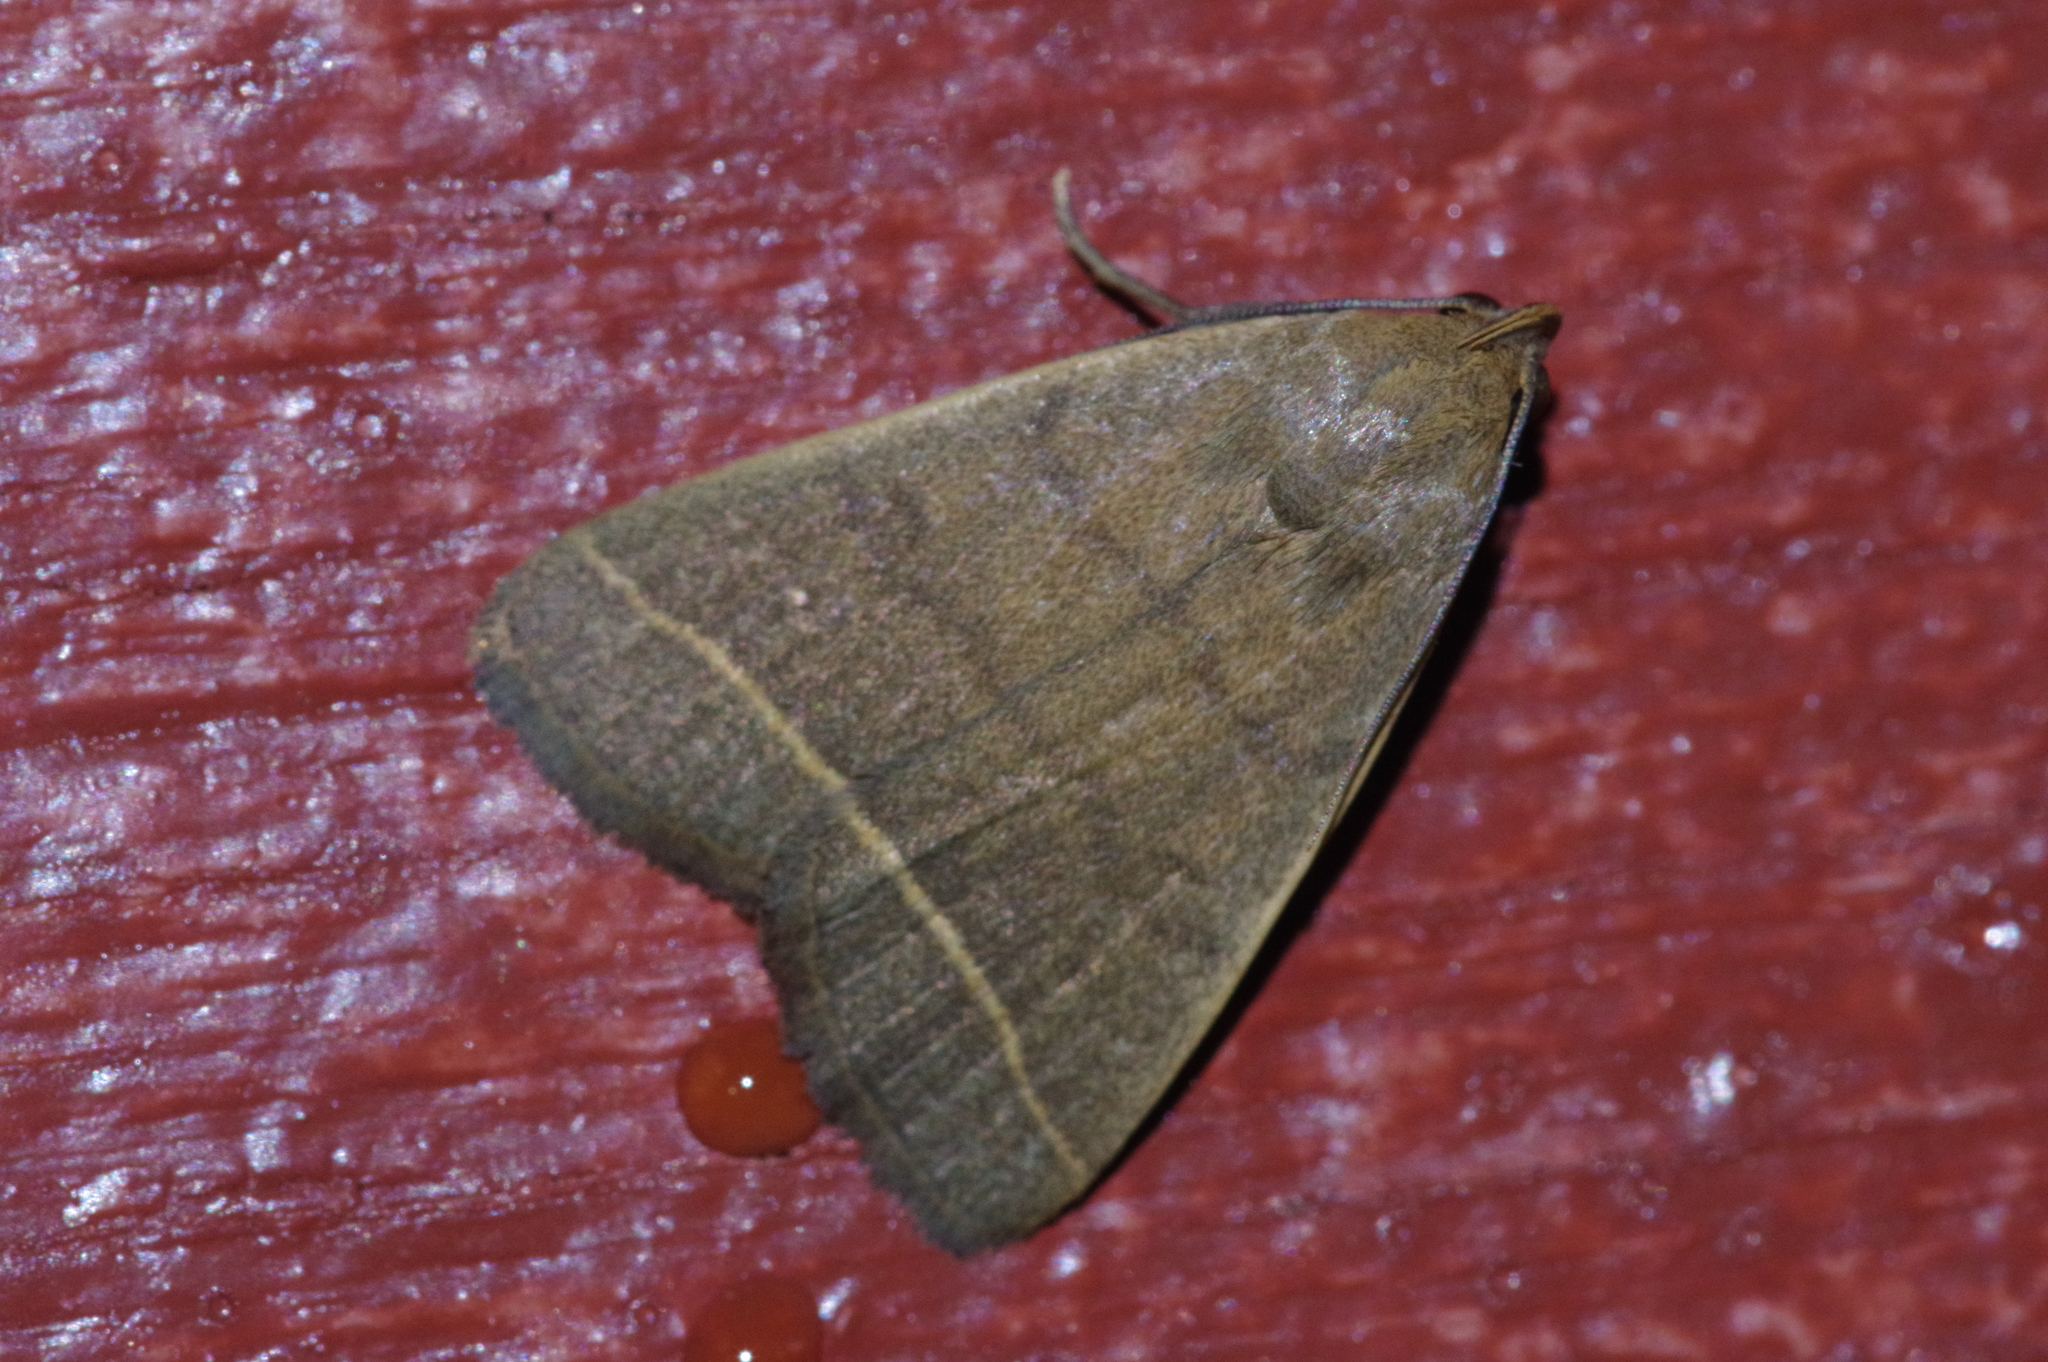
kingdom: Animalia
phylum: Arthropoda
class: Insecta
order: Lepidoptera
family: Erebidae
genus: Simplicia
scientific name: Simplicia cornicalis
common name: Tiki hut litter moth
